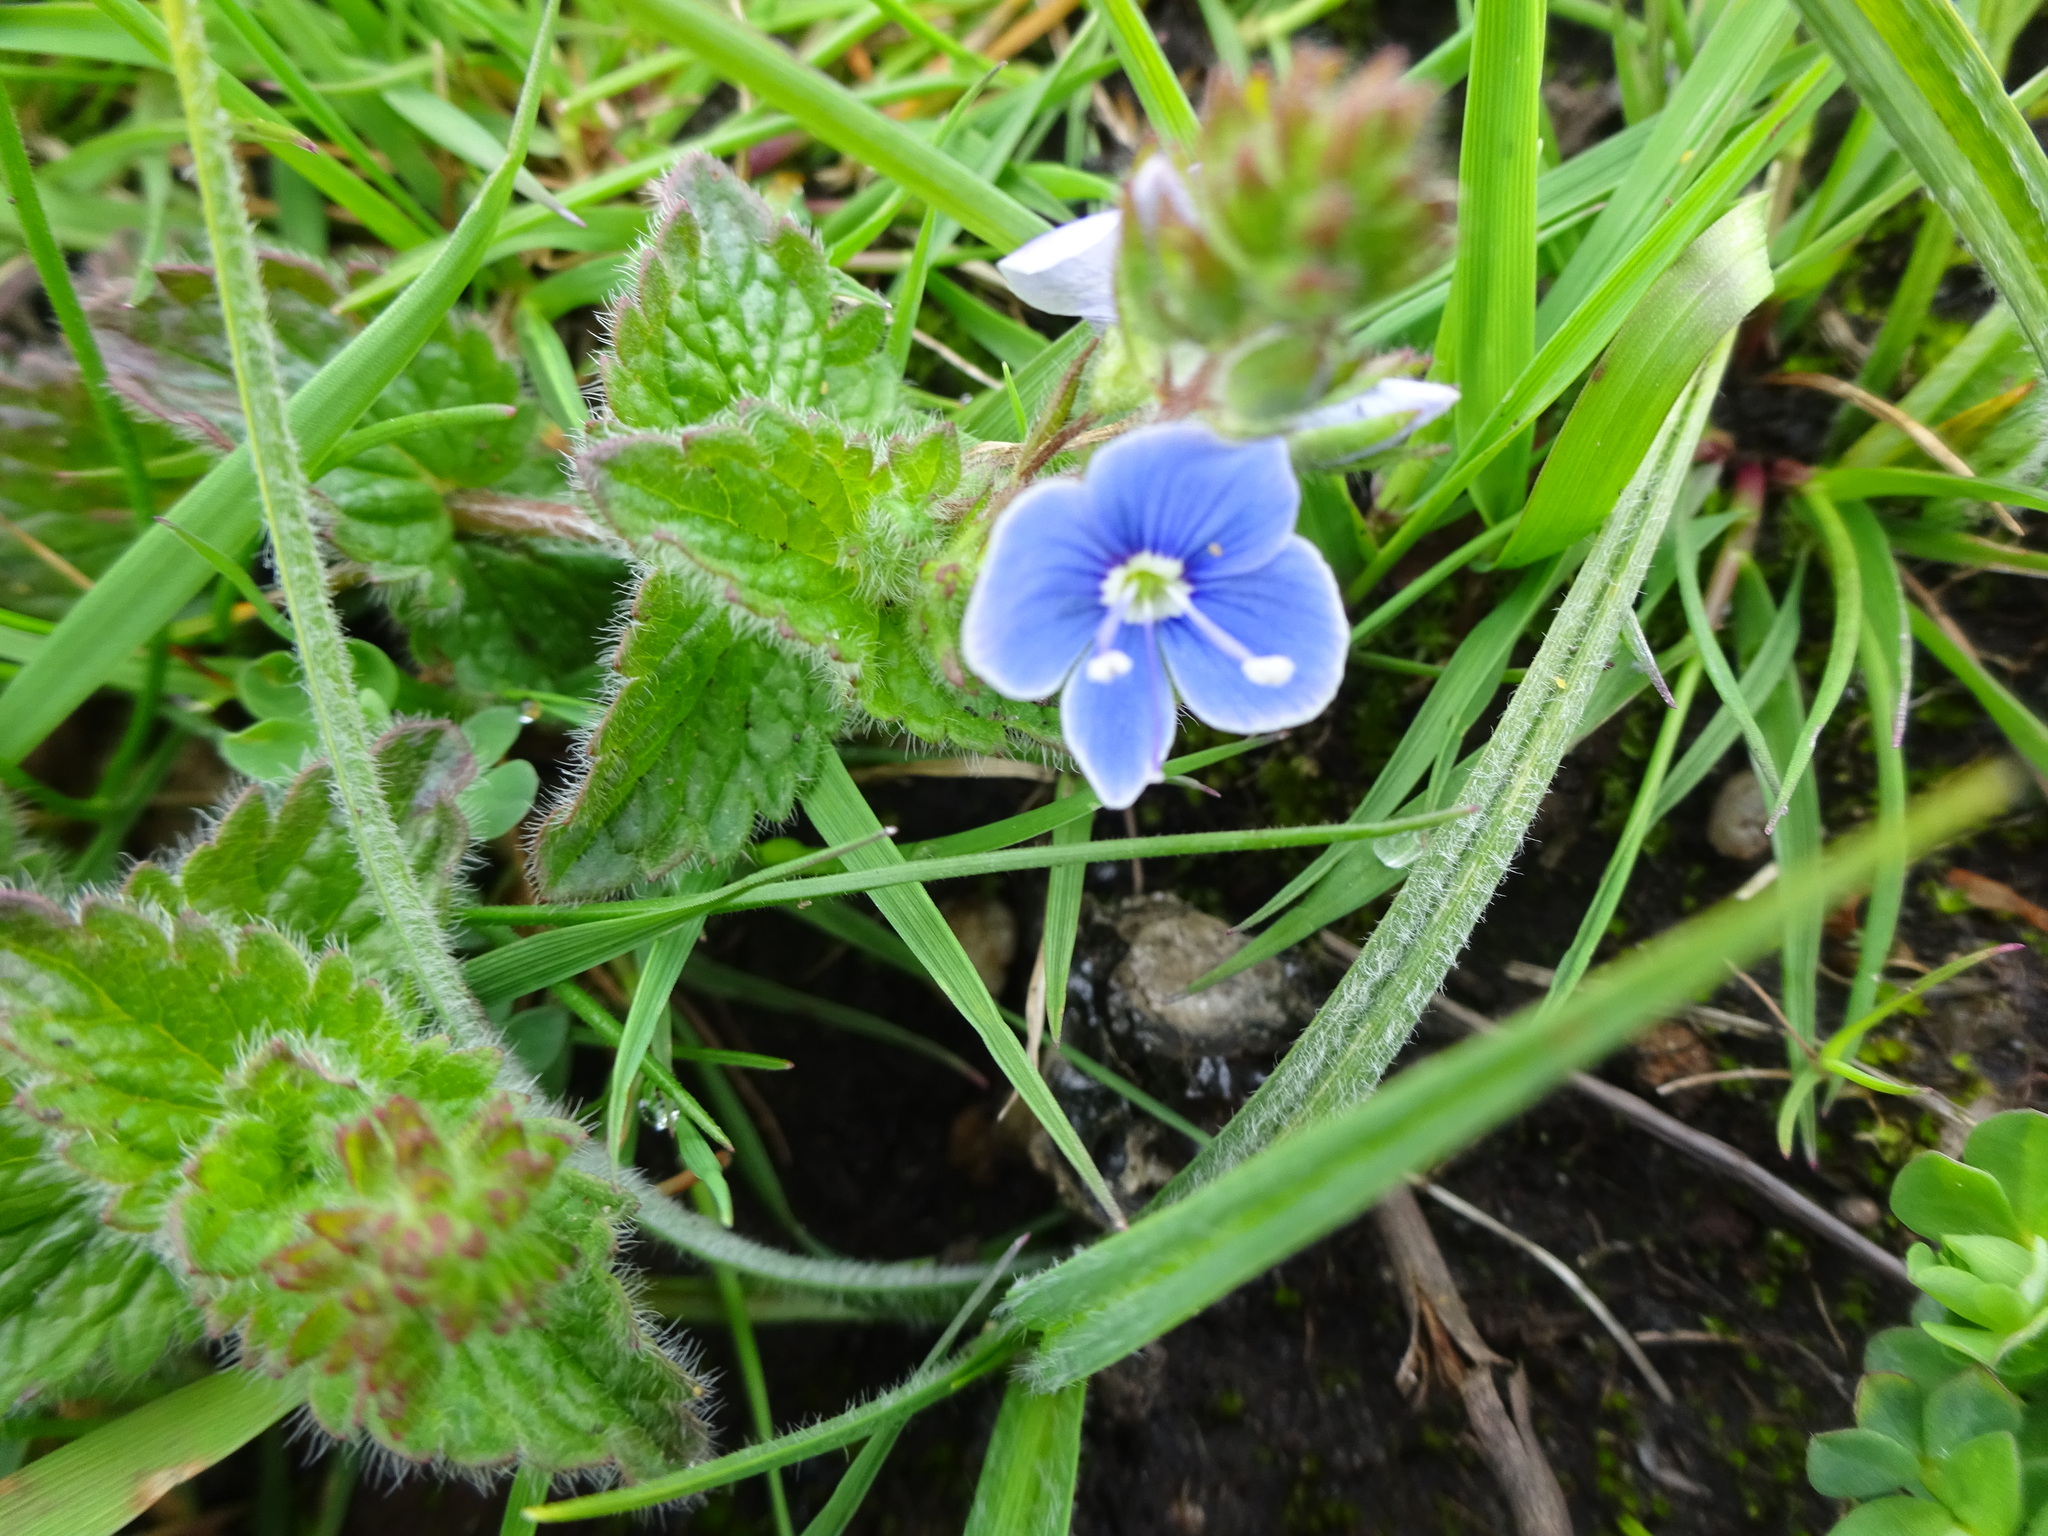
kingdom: Plantae
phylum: Tracheophyta
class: Magnoliopsida
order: Lamiales
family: Plantaginaceae
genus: Veronica
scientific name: Veronica chamaedrys
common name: Germander speedwell
